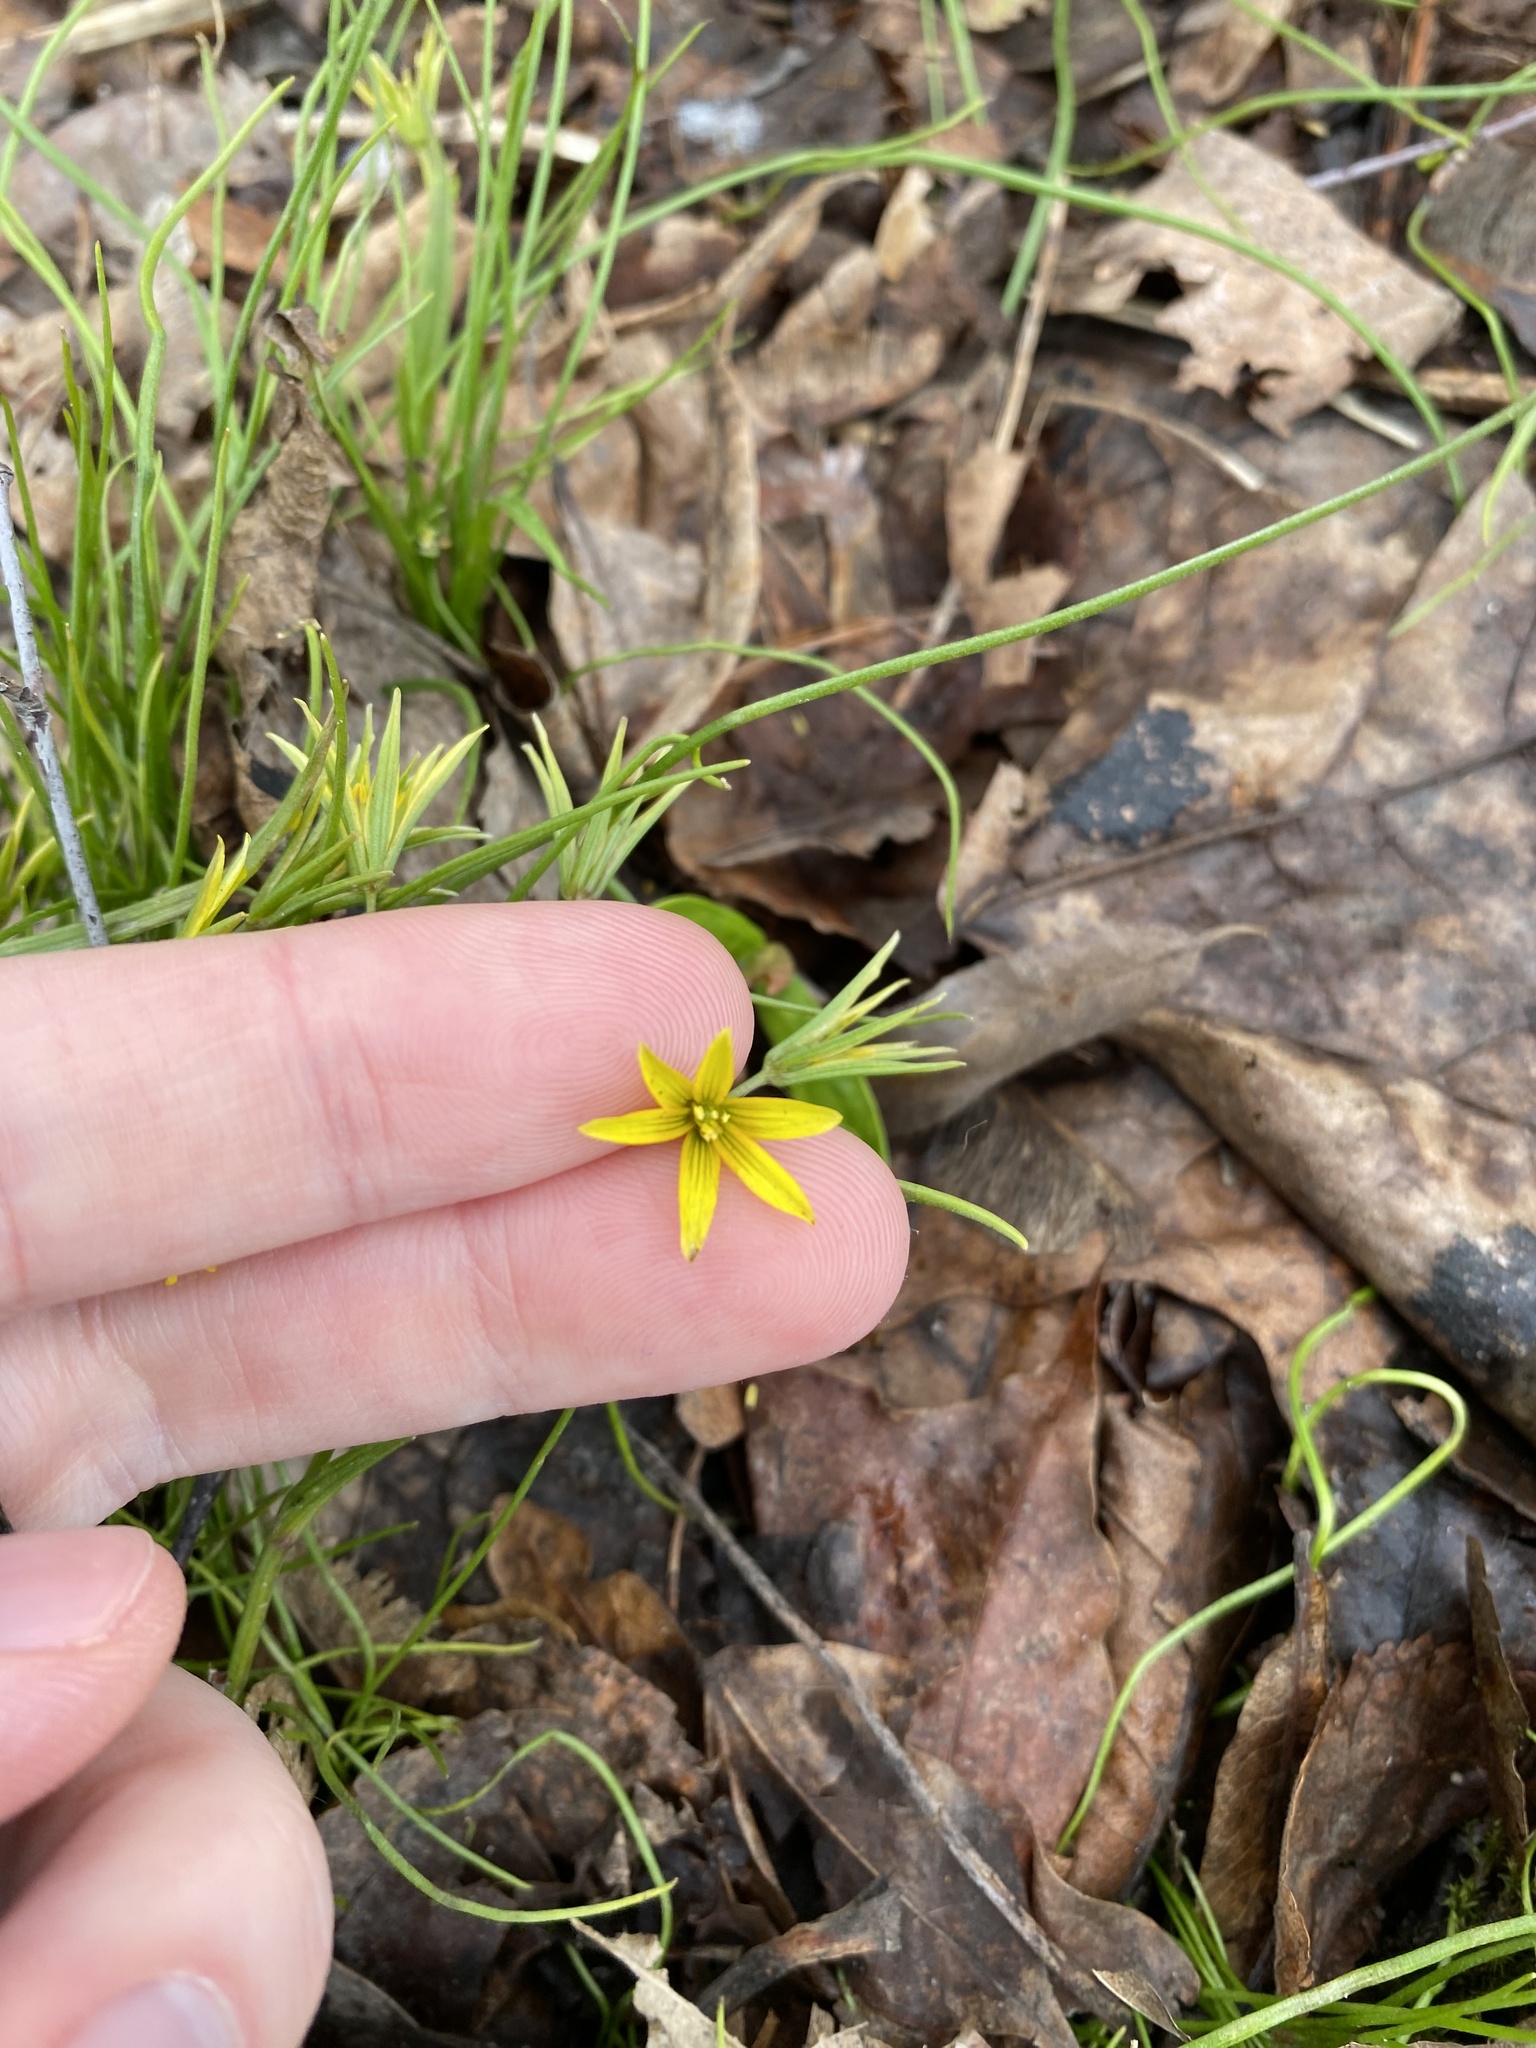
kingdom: Plantae
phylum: Tracheophyta
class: Liliopsida
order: Liliales
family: Liliaceae
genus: Gagea
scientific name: Gagea minima
